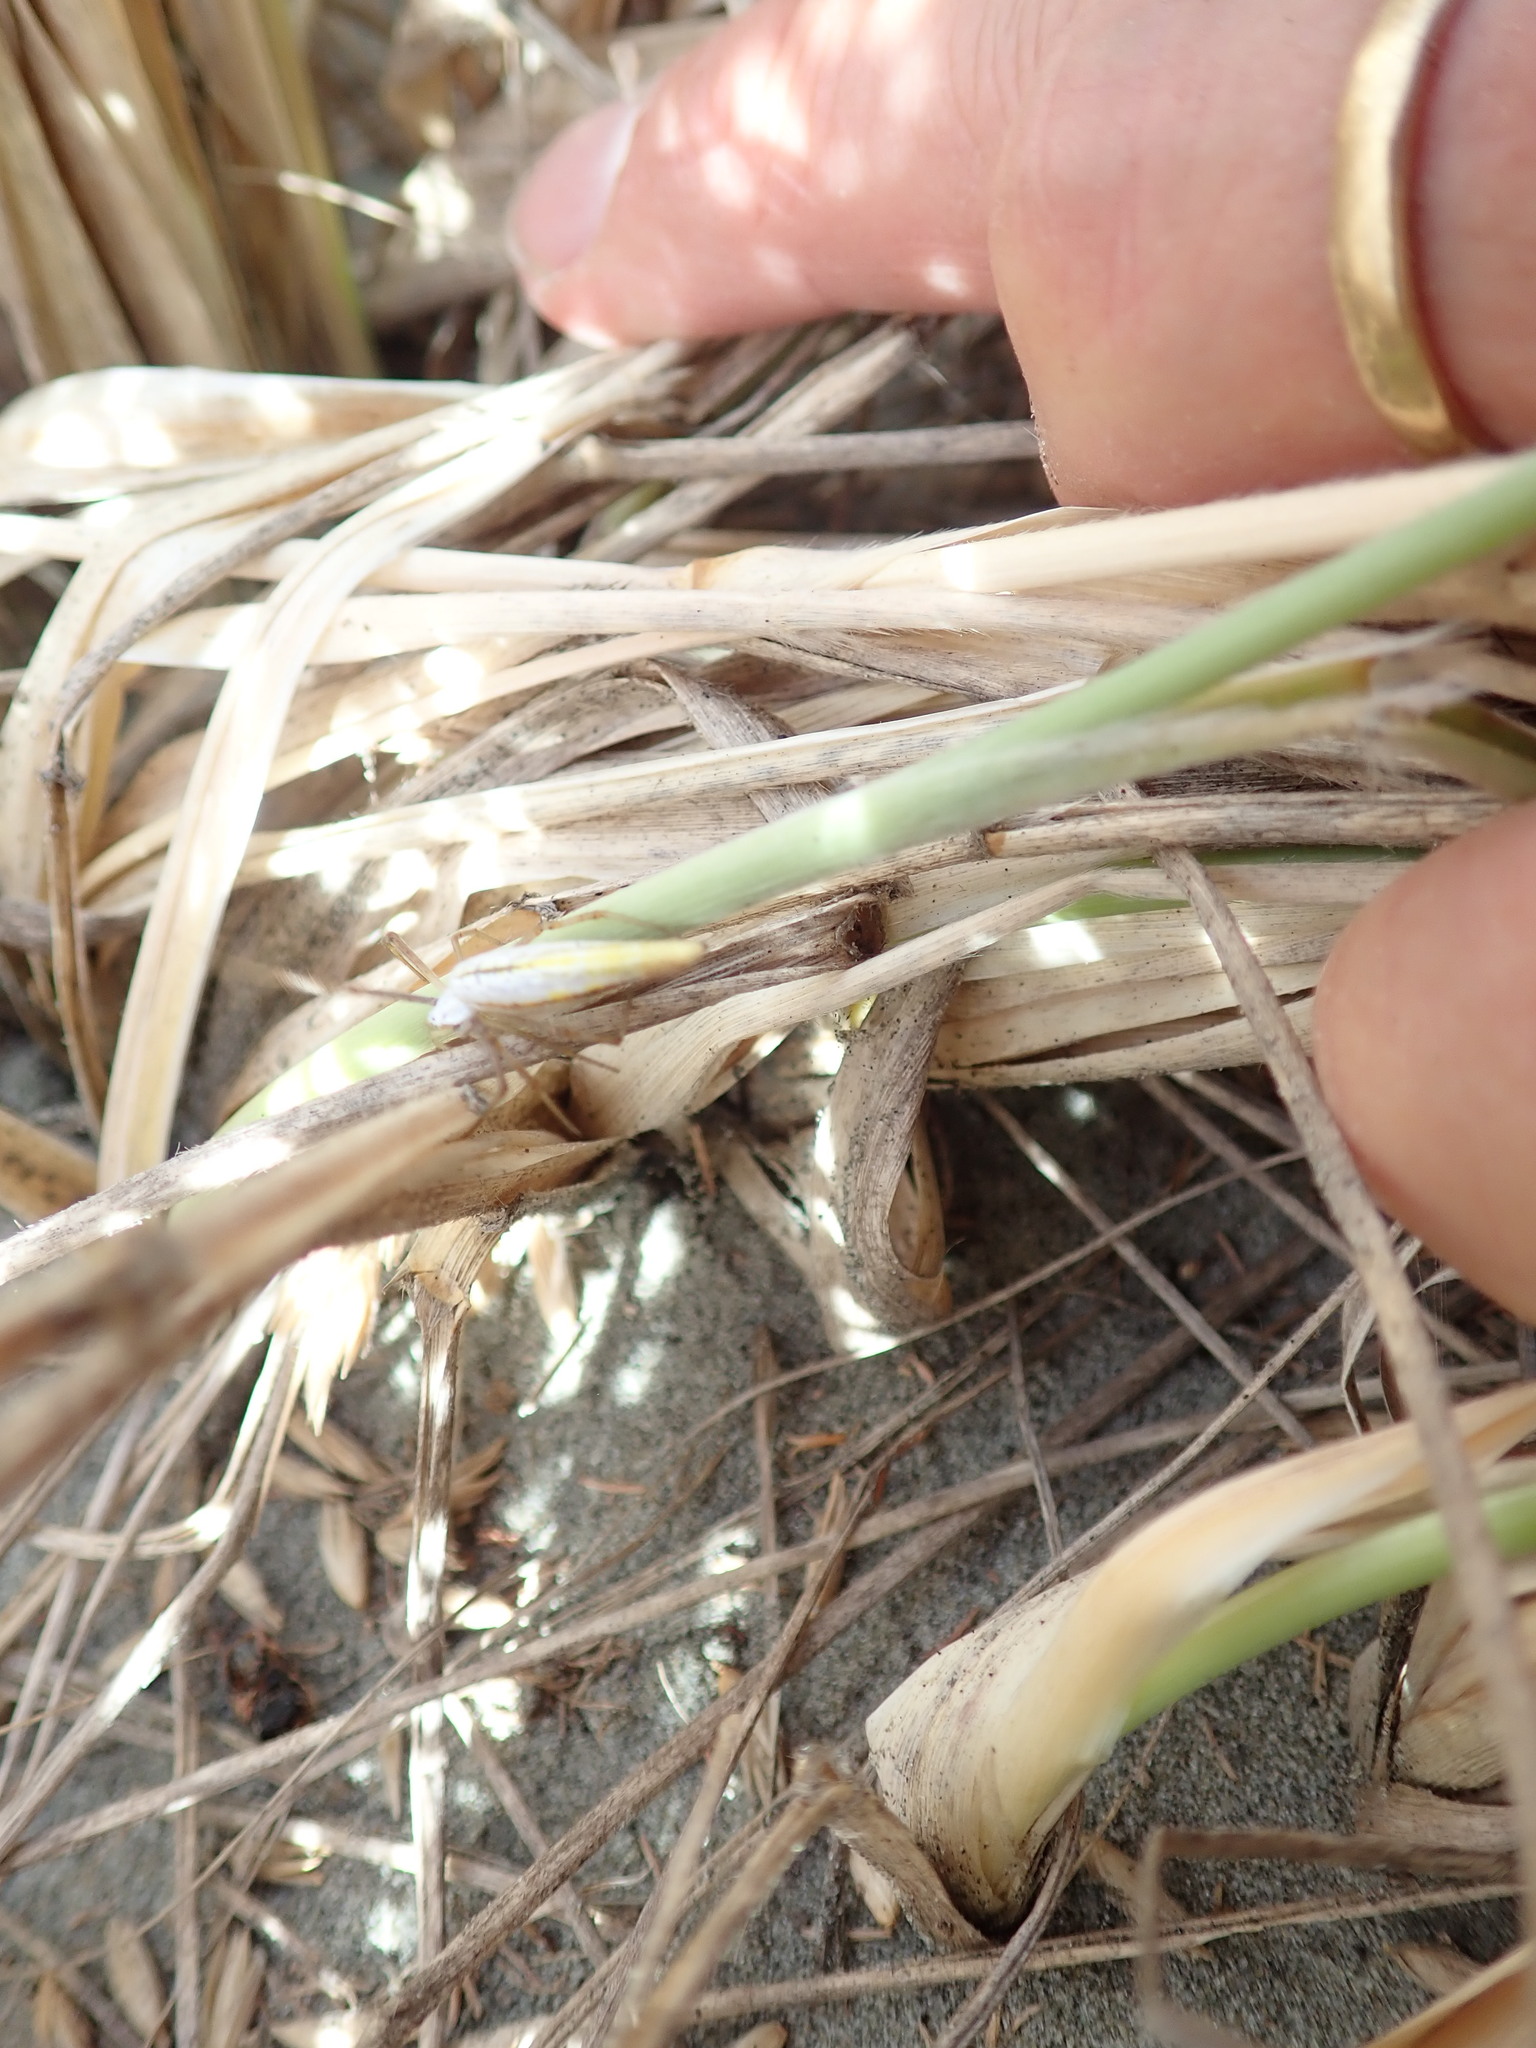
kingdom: Animalia
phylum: Arthropoda
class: Arachnida
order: Araneae
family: Araneidae
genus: Argiope
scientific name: Argiope protensa
